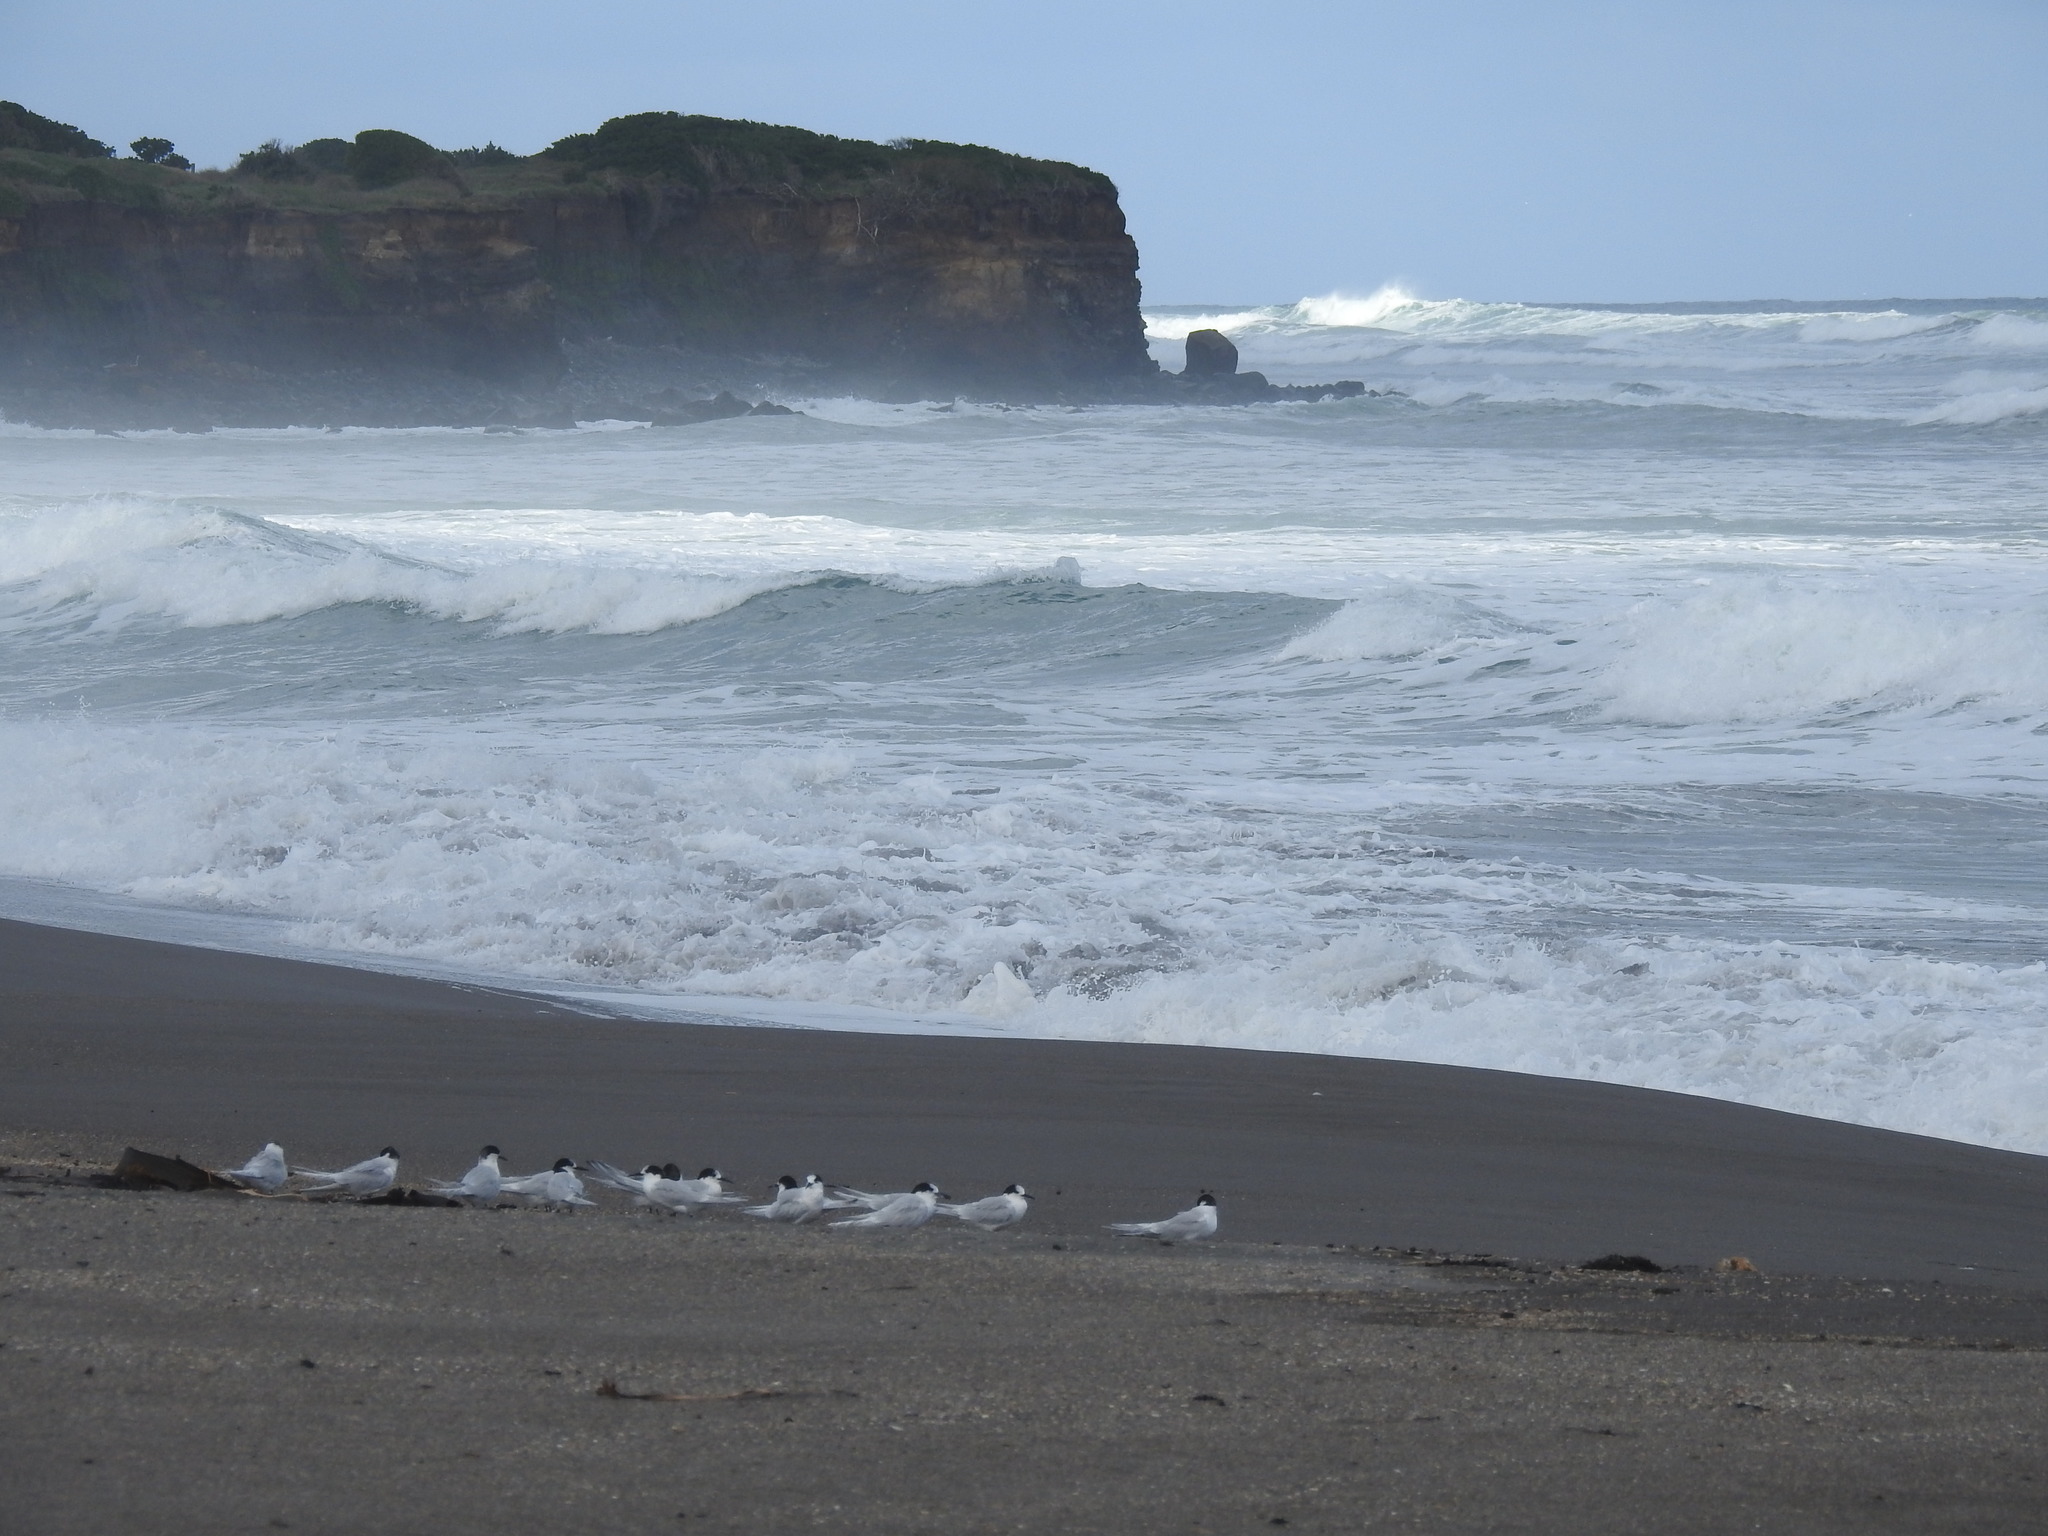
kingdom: Animalia
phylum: Chordata
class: Aves
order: Charadriiformes
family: Laridae
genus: Sterna
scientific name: Sterna striata
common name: White-fronted tern
